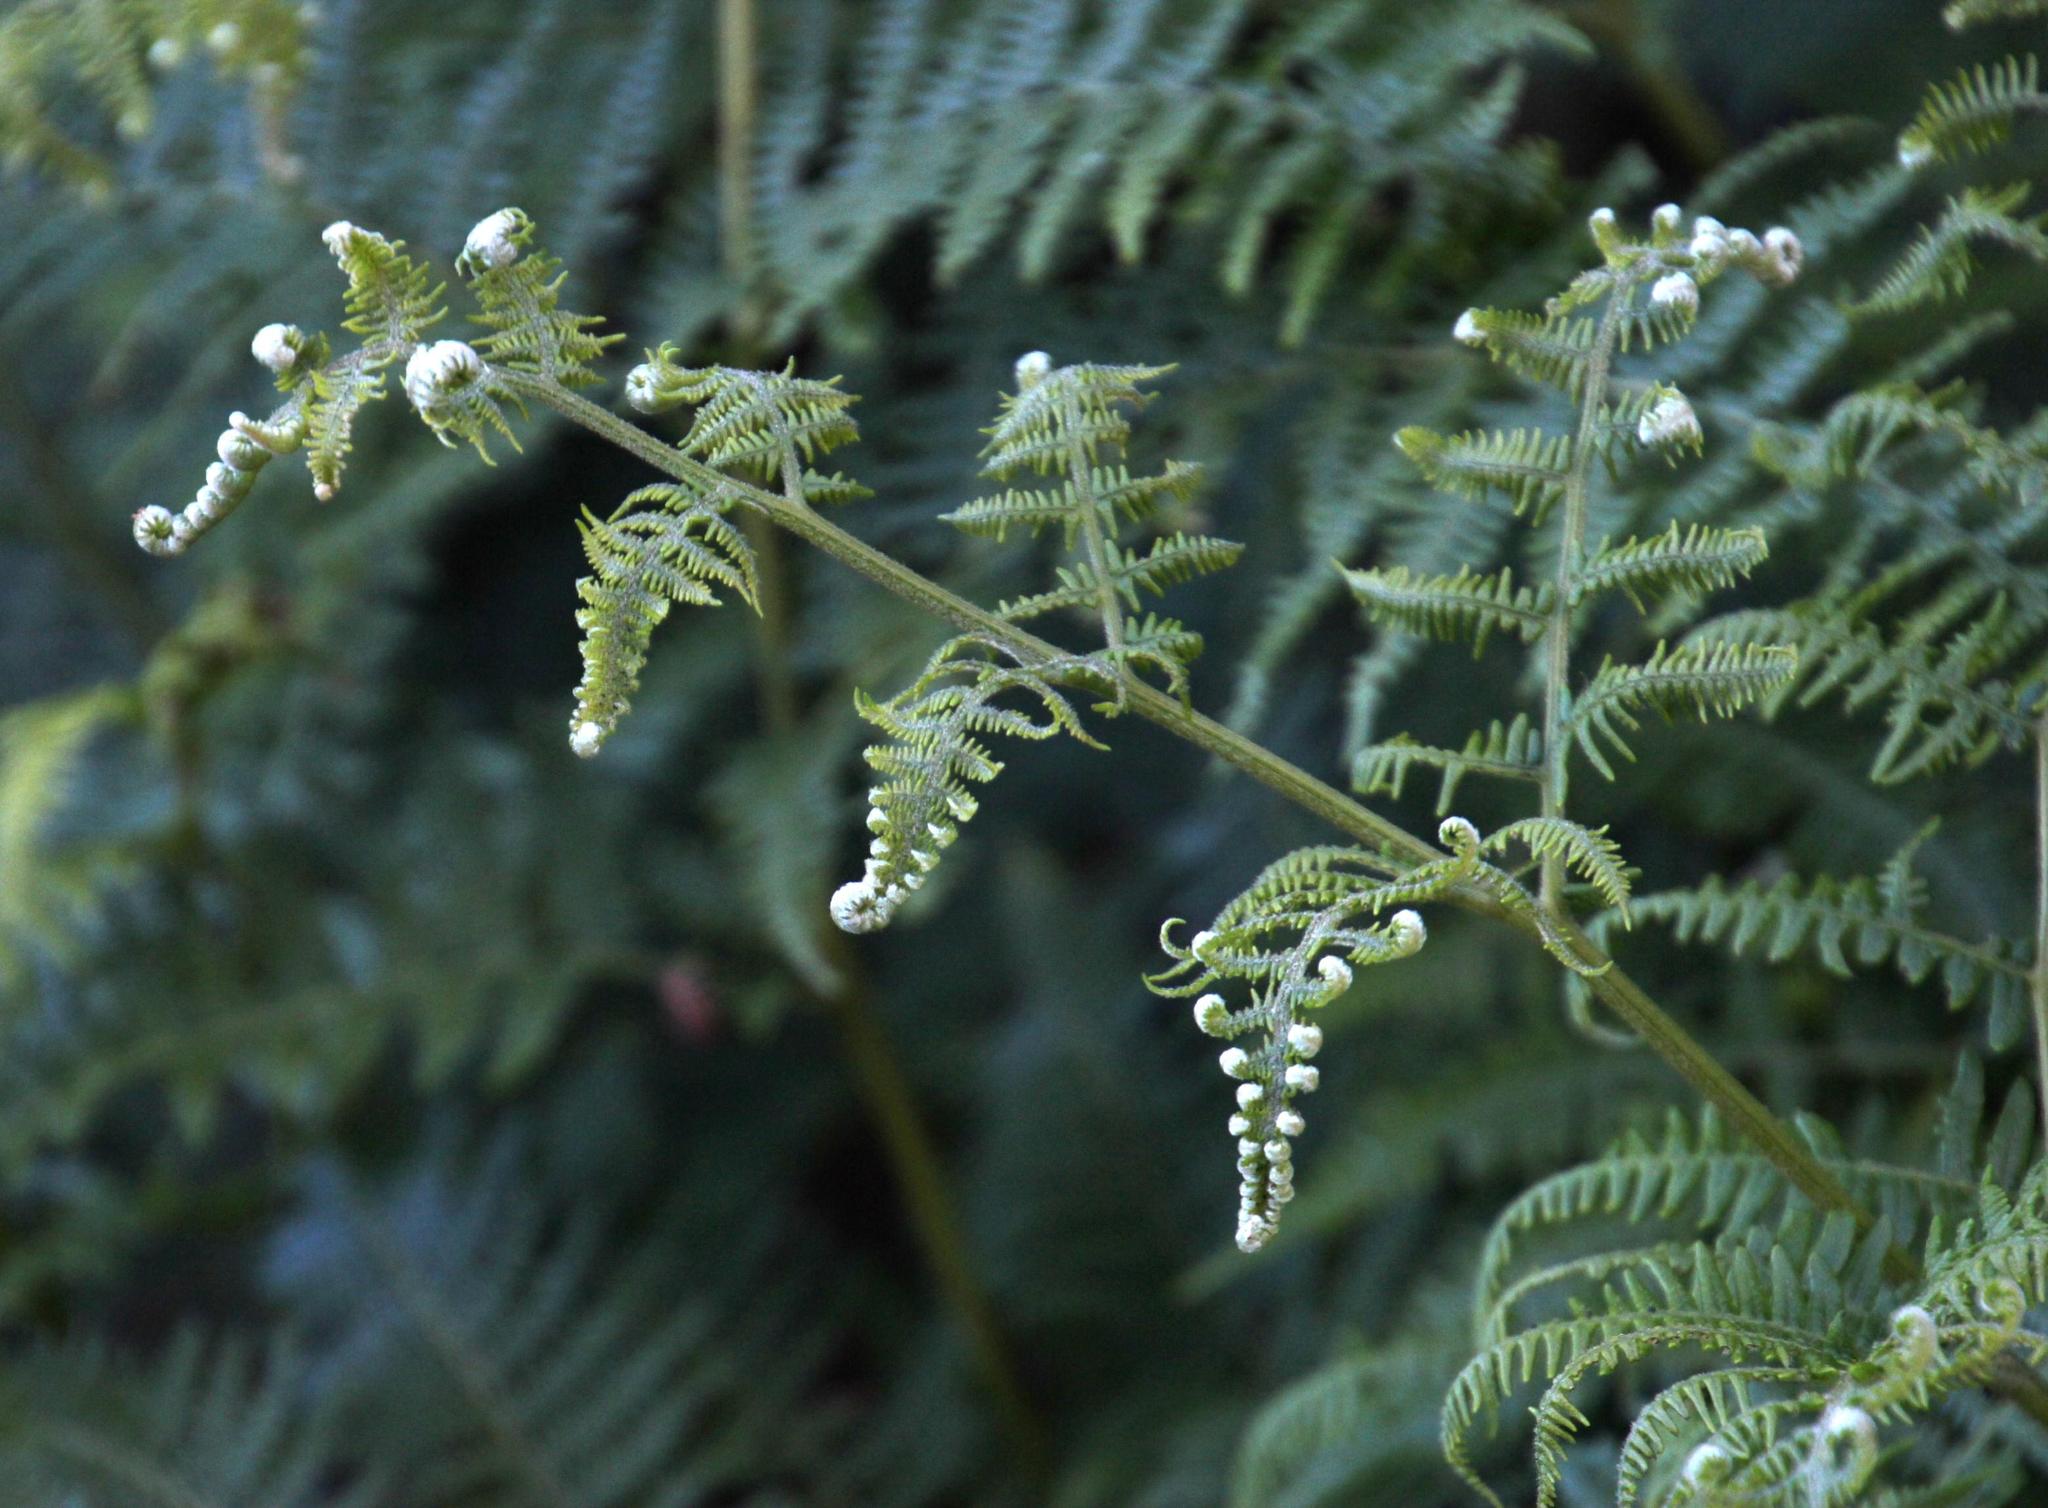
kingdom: Plantae
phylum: Tracheophyta
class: Polypodiopsida
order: Polypodiales
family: Dennstaedtiaceae
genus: Pteridium
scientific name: Pteridium aquilinum
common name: Bracken
